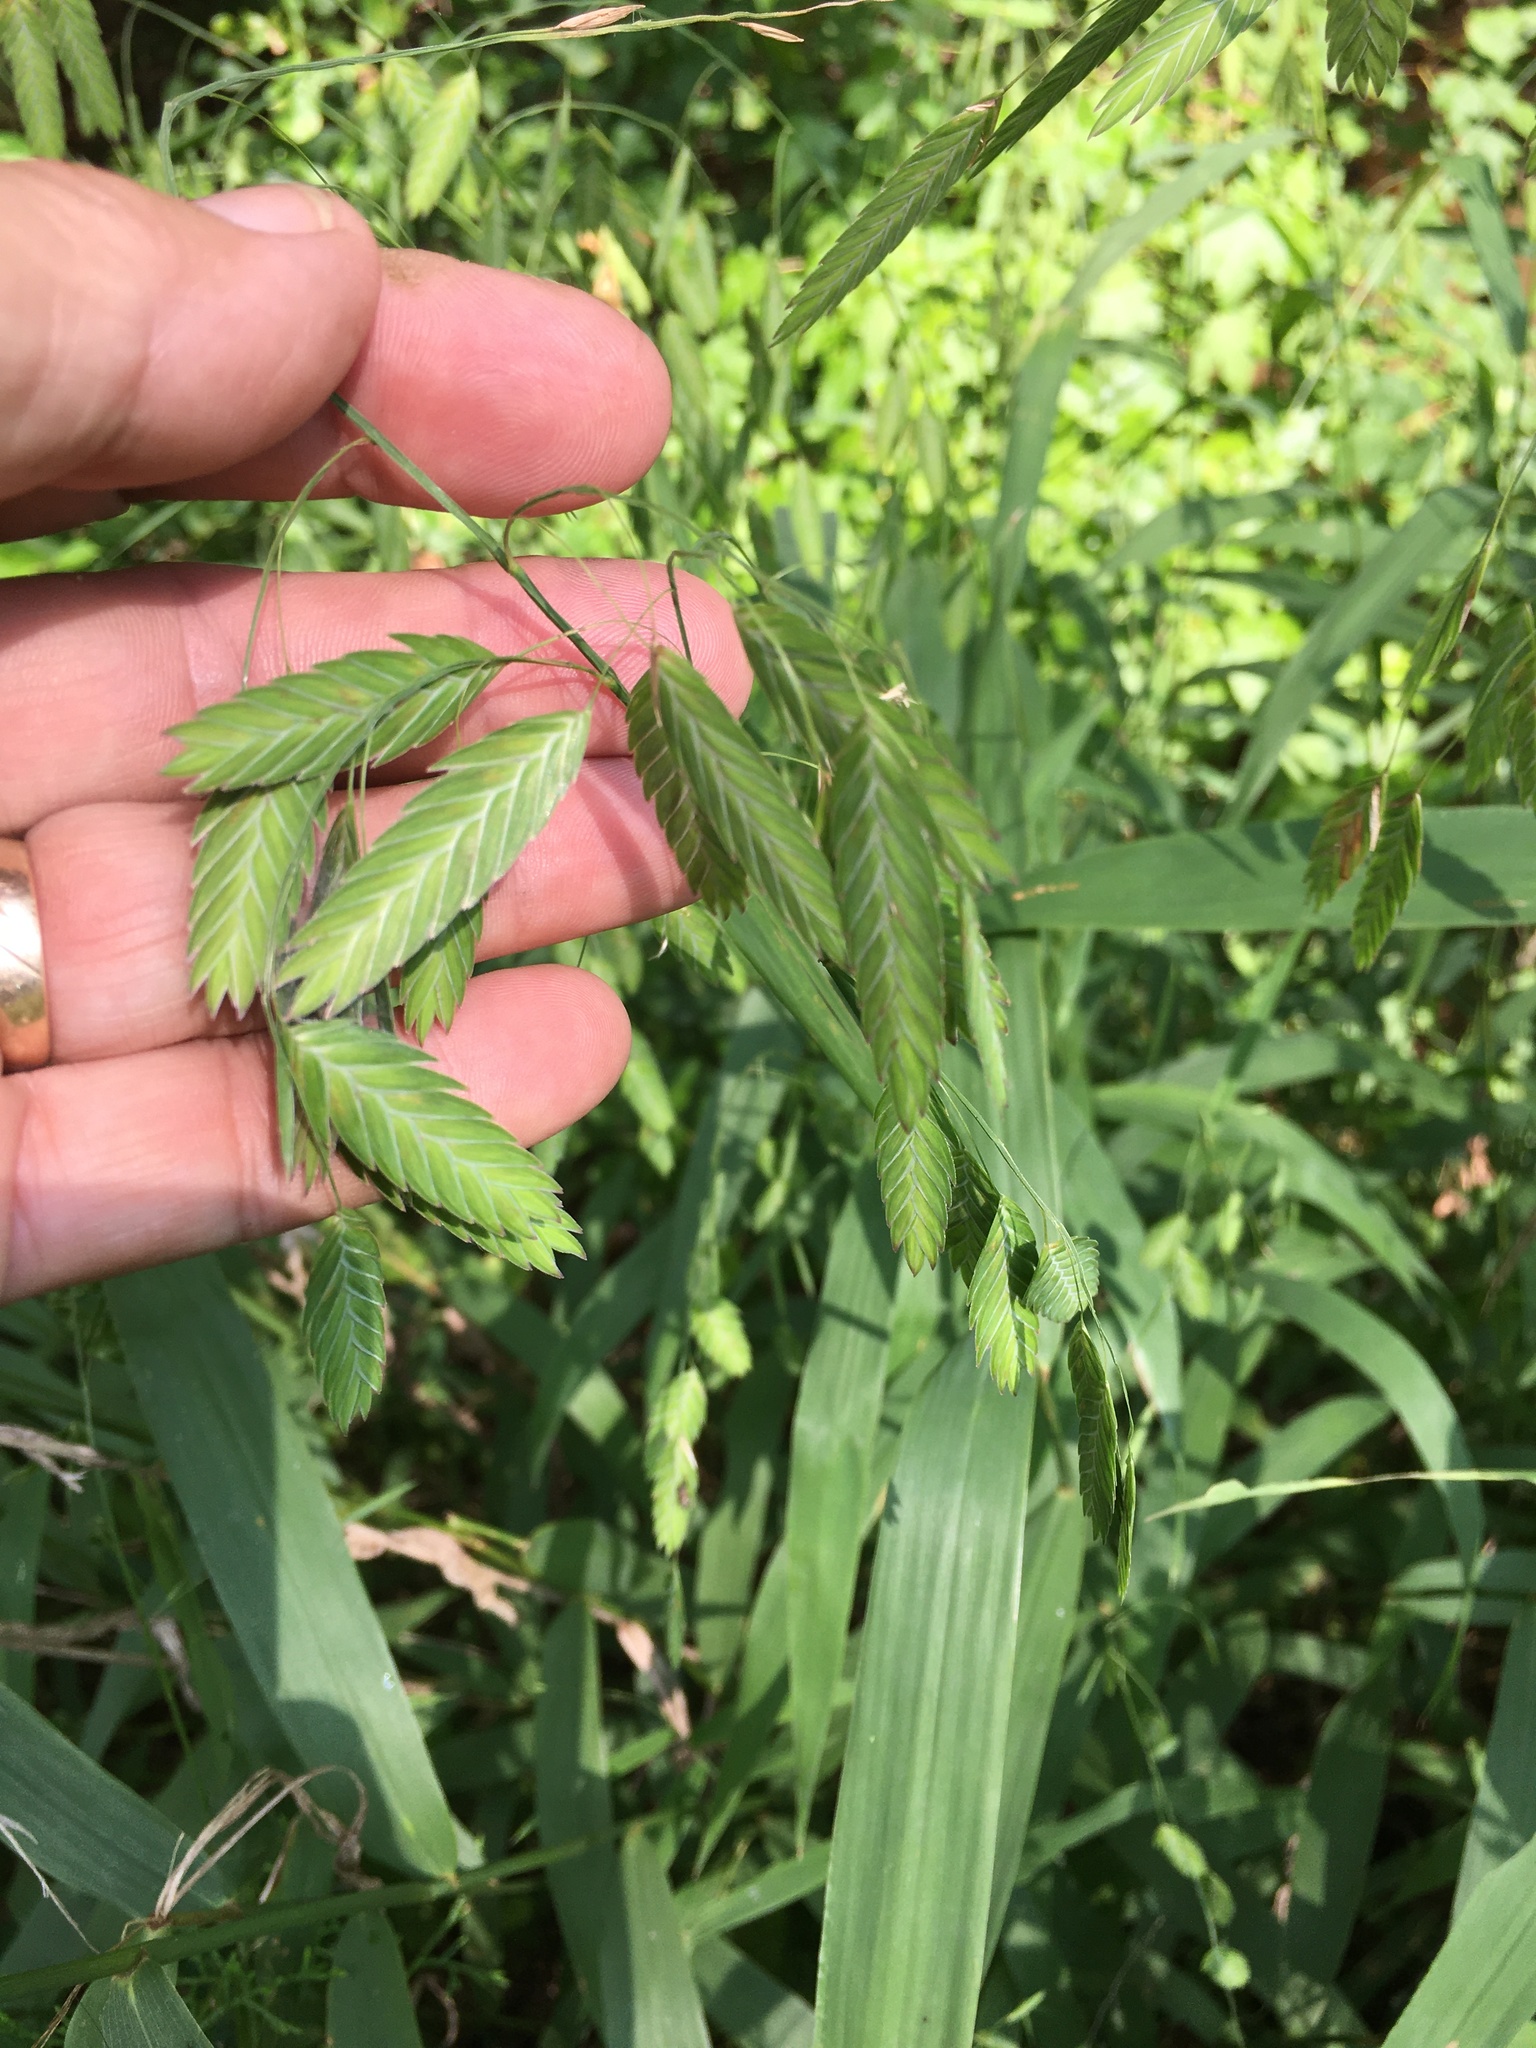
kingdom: Plantae
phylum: Tracheophyta
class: Liliopsida
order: Poales
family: Poaceae
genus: Chasmanthium
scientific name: Chasmanthium latifolium
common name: Broad-leaved chasmanthium
